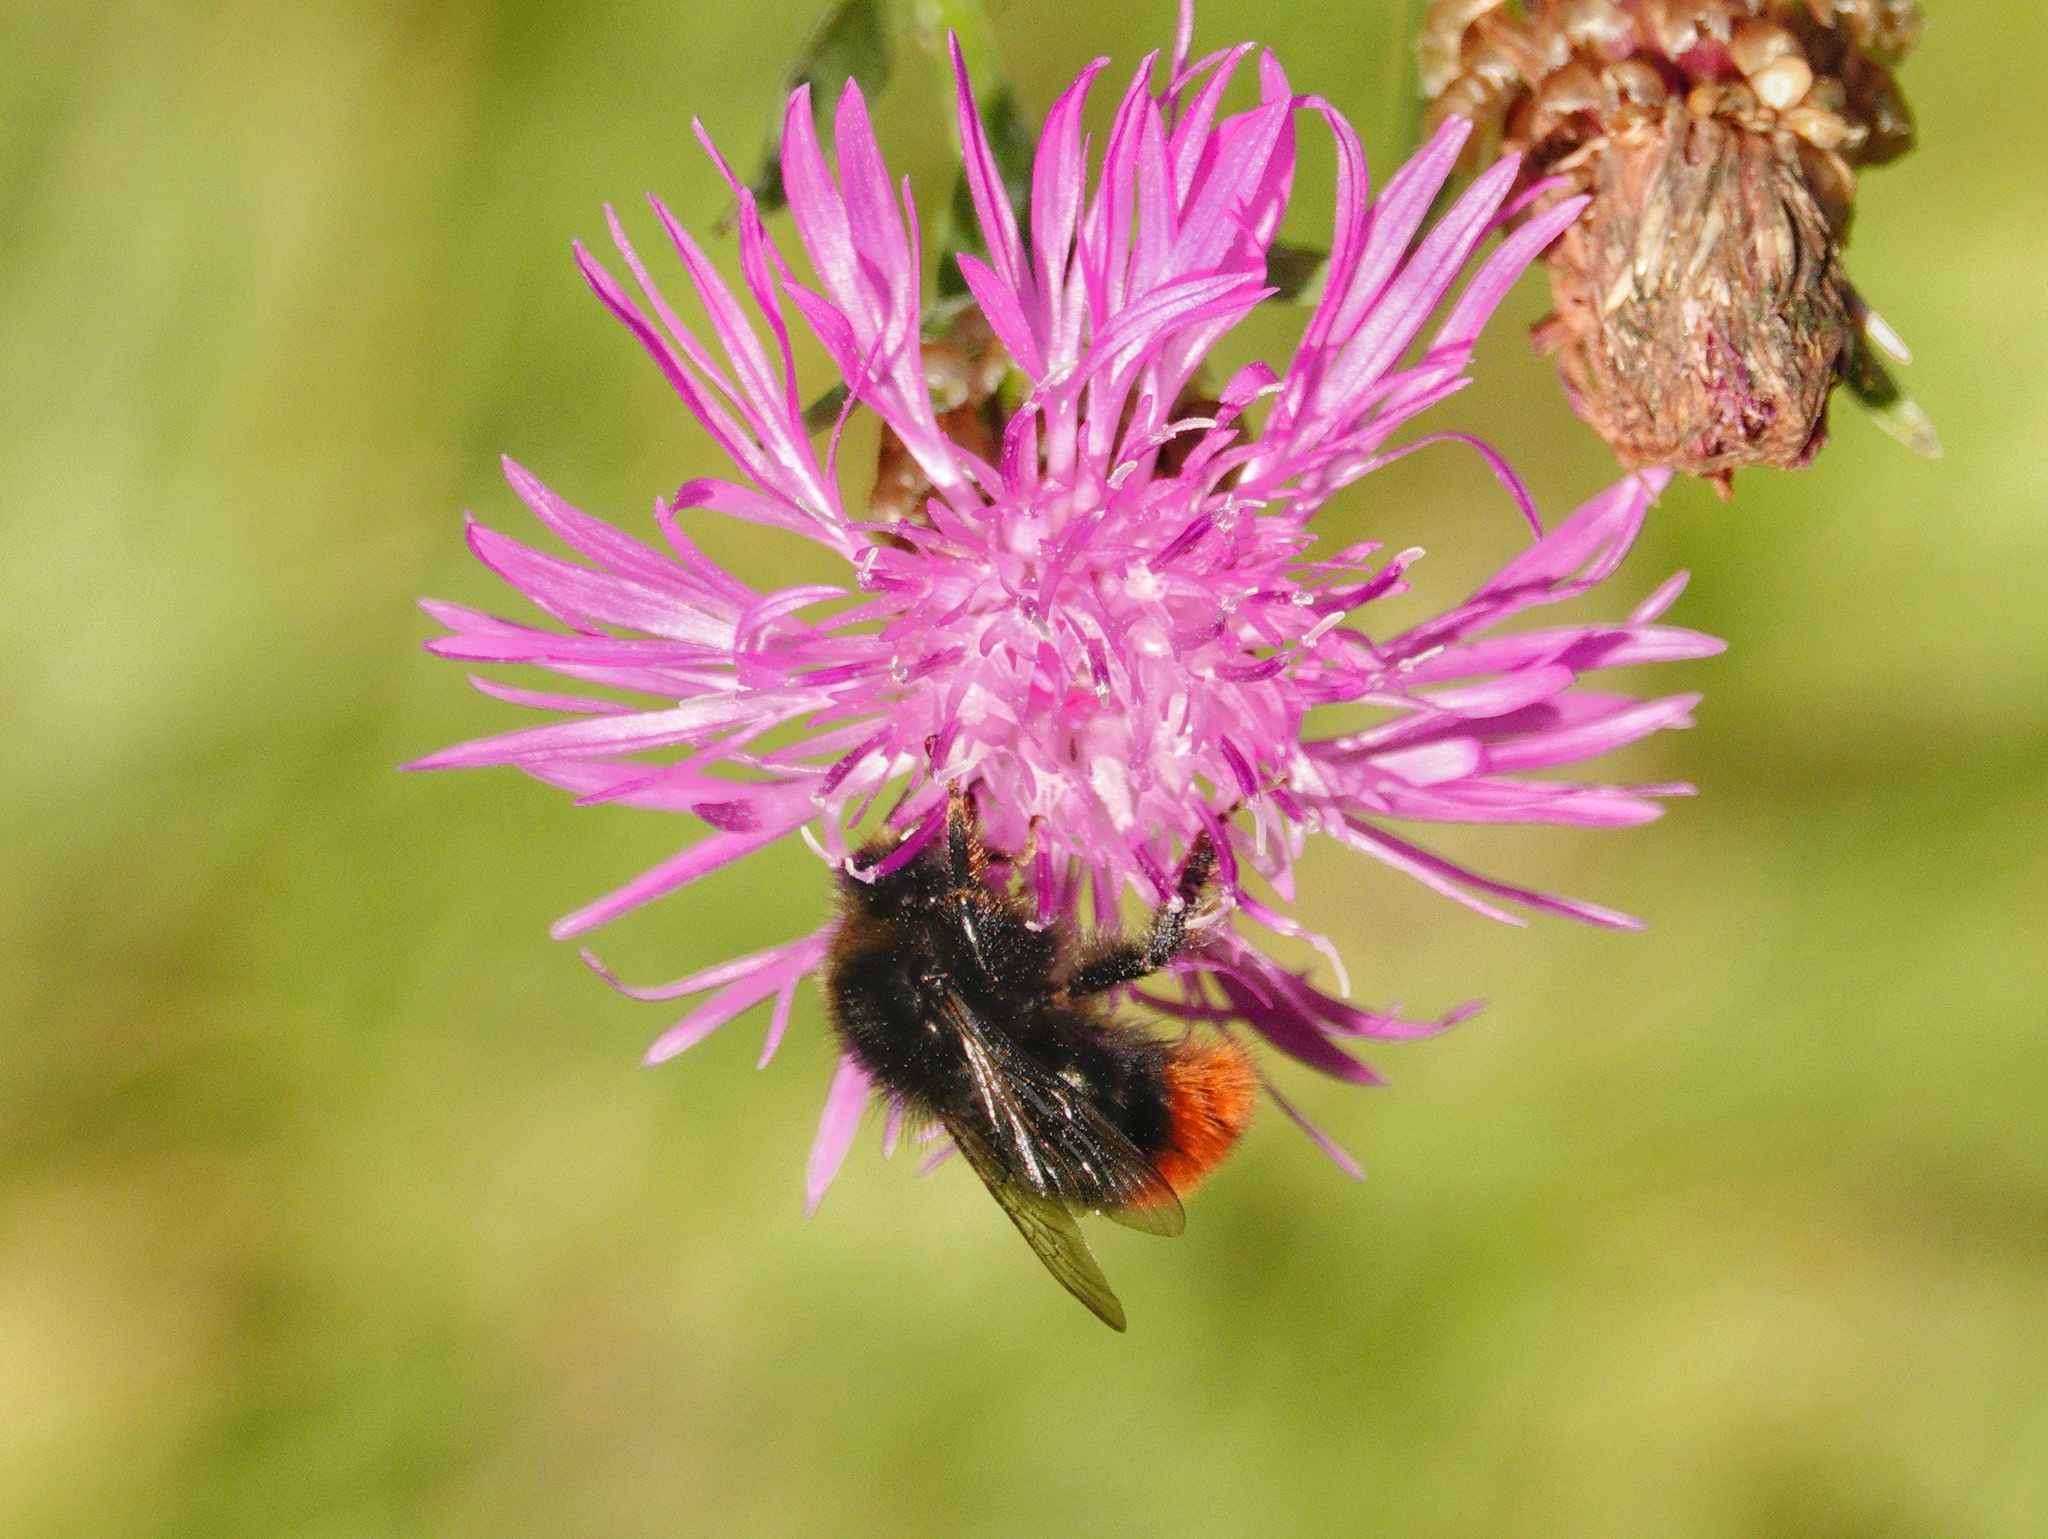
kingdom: Animalia
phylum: Arthropoda
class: Insecta
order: Hymenoptera
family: Apidae
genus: Bombus
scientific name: Bombus lapidarius
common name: Large red-tailed humble-bee
